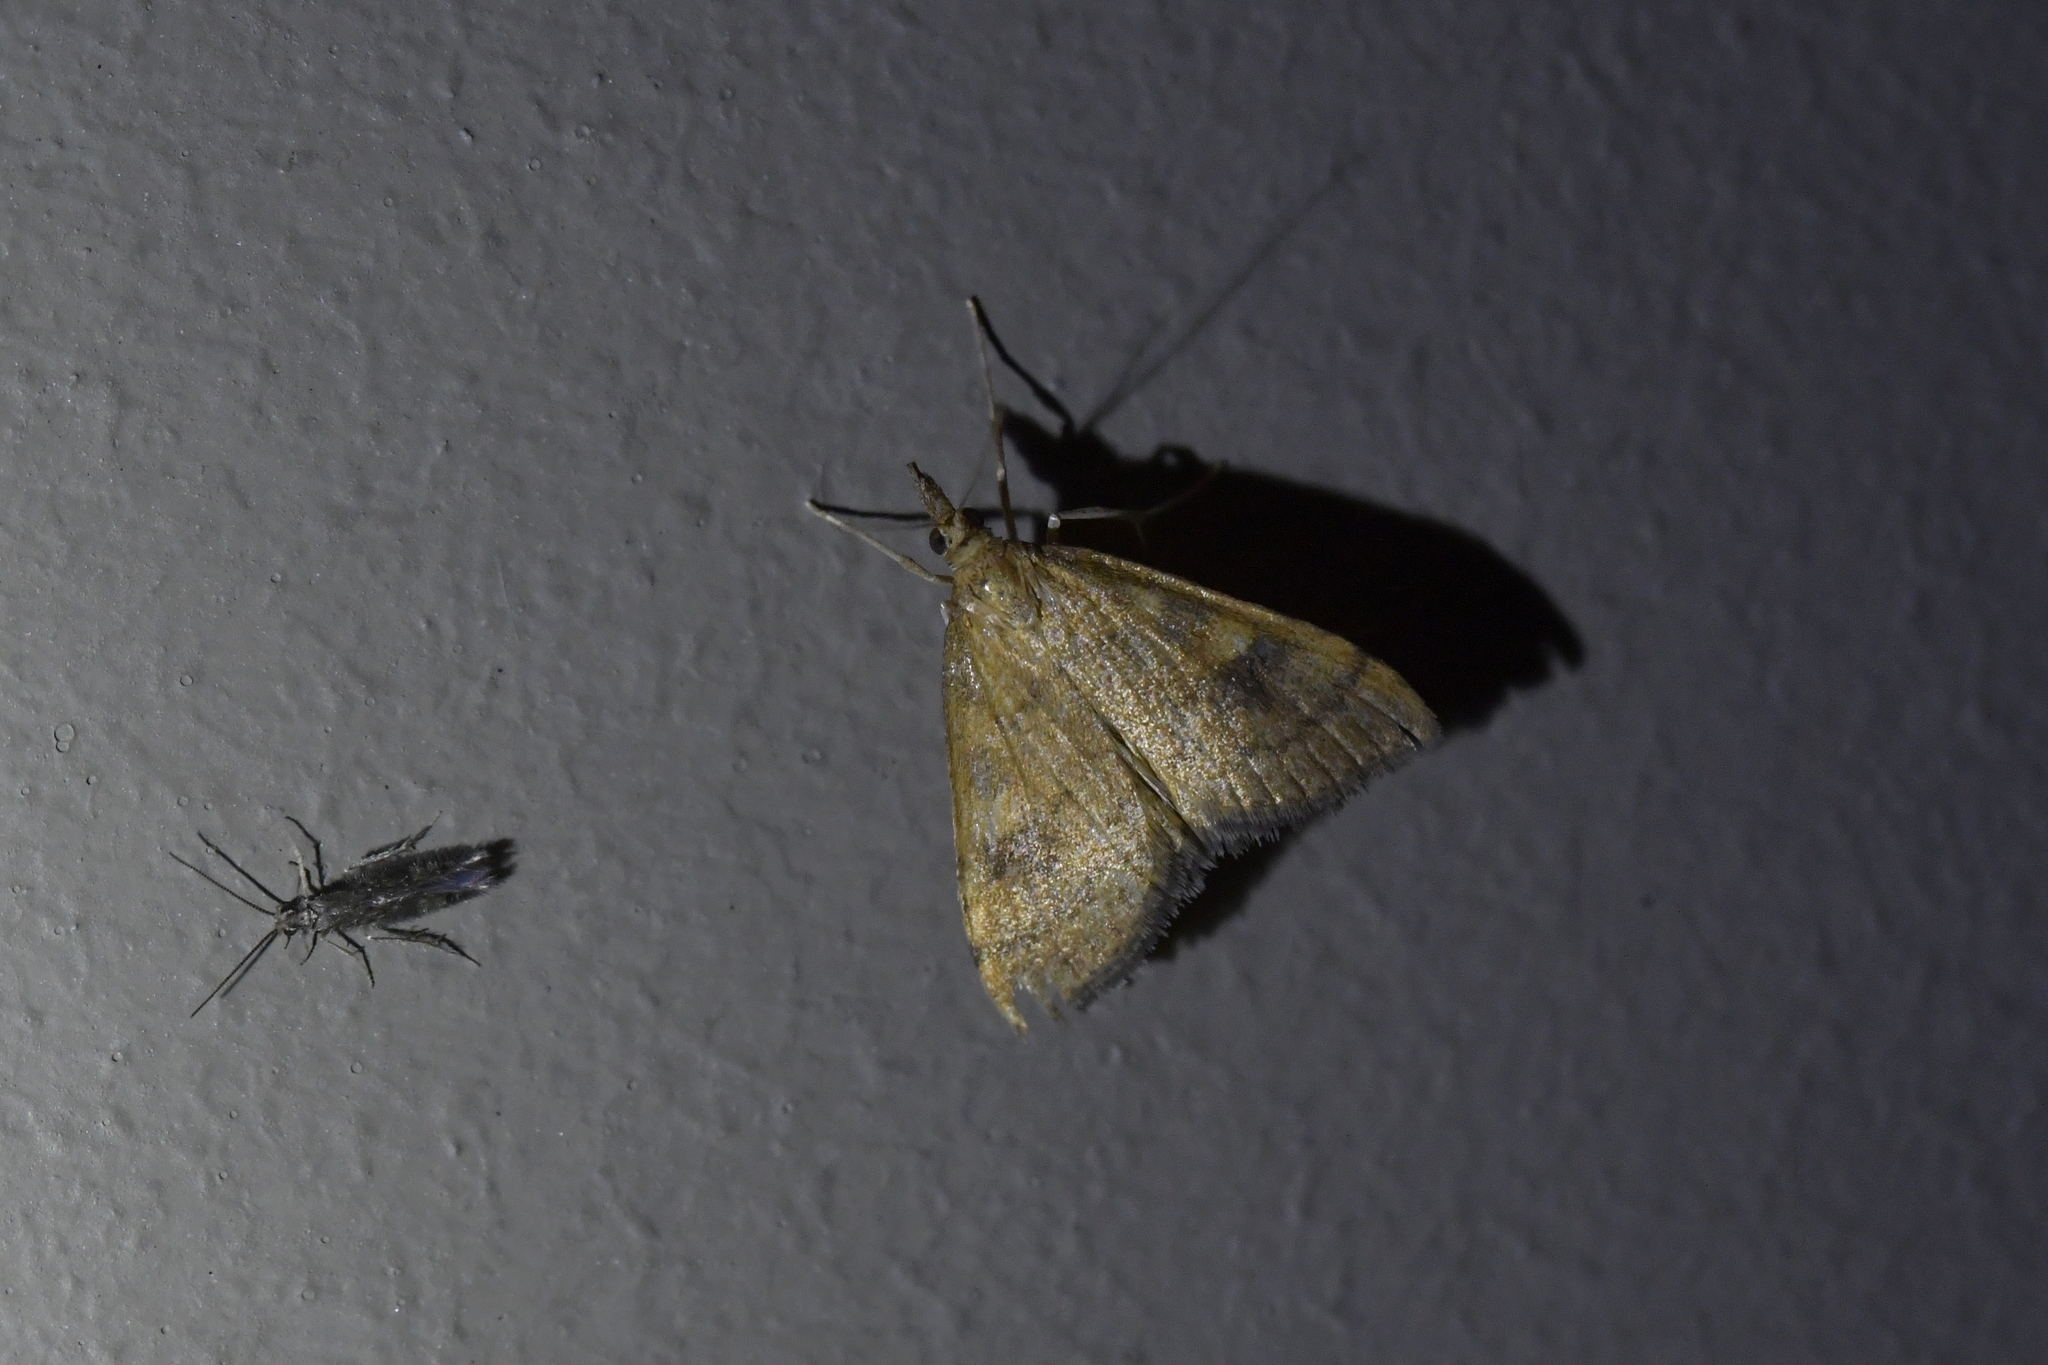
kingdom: Animalia
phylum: Arthropoda
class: Insecta
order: Lepidoptera
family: Crambidae
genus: Udea
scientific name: Udea Mnesictena flavidalis
